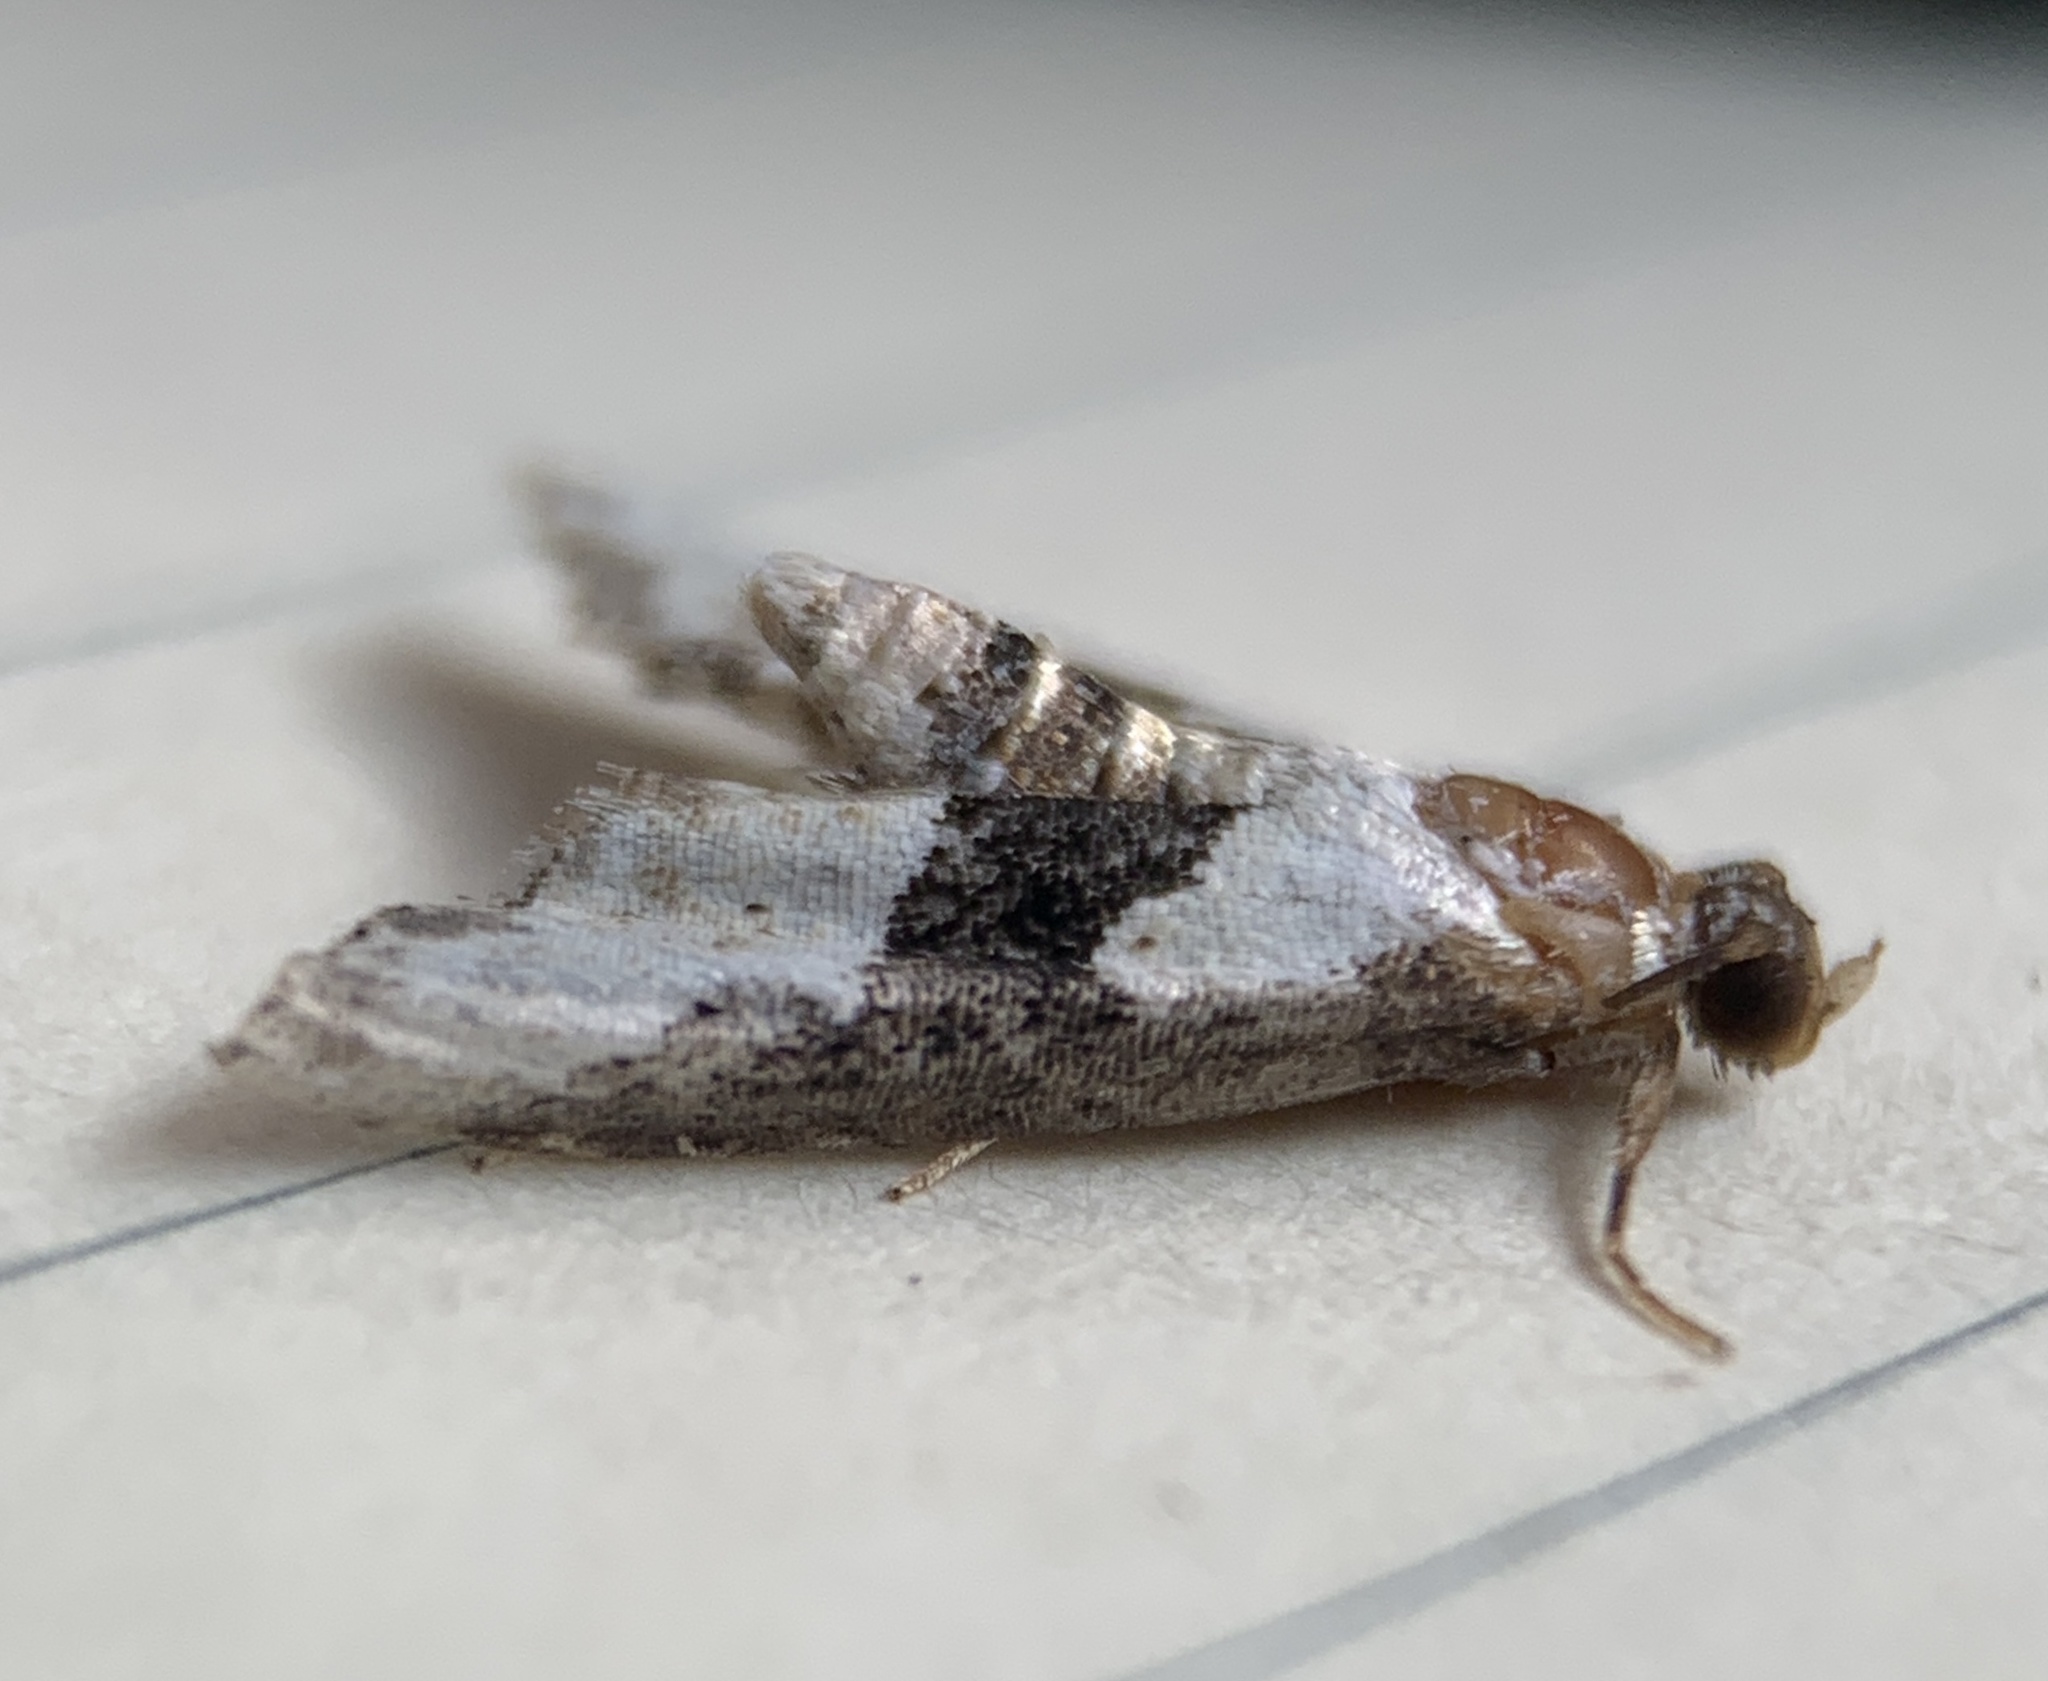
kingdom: Animalia
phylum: Arthropoda
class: Insecta
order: Lepidoptera
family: Noctuidae
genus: Nigetia
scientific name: Nigetia formosalis
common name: Thin-winged owlet
